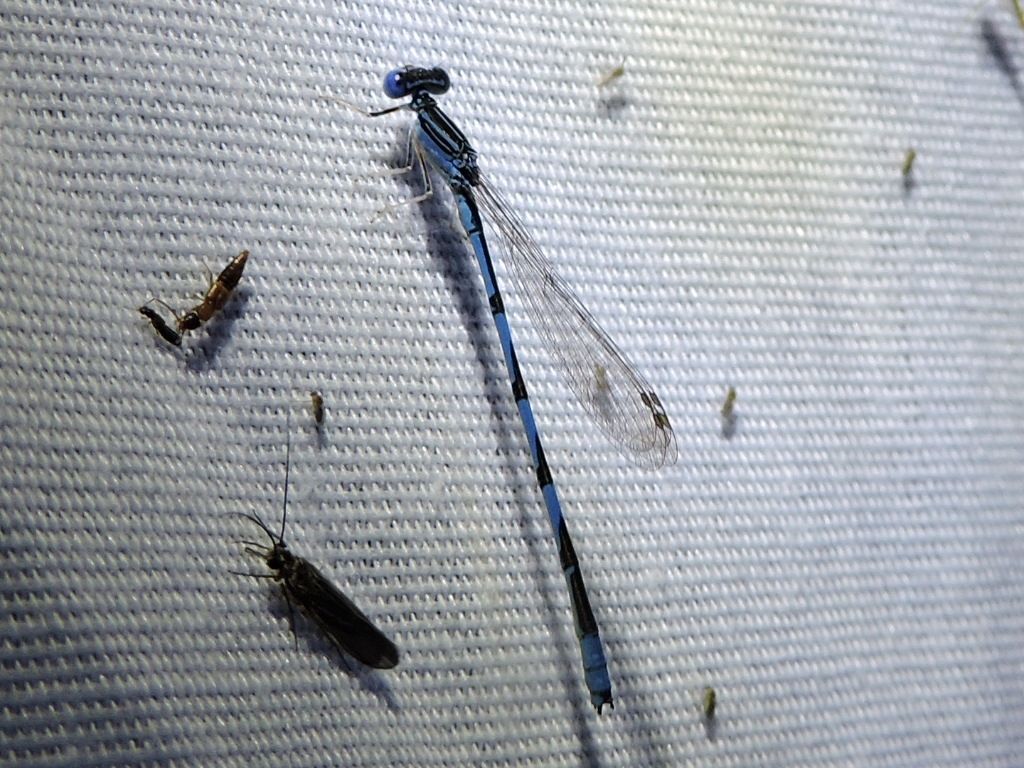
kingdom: Animalia
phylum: Arthropoda
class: Insecta
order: Odonata
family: Coenagrionidae
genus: Enallagma
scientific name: Enallagma basidens
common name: Double-striped bluet
